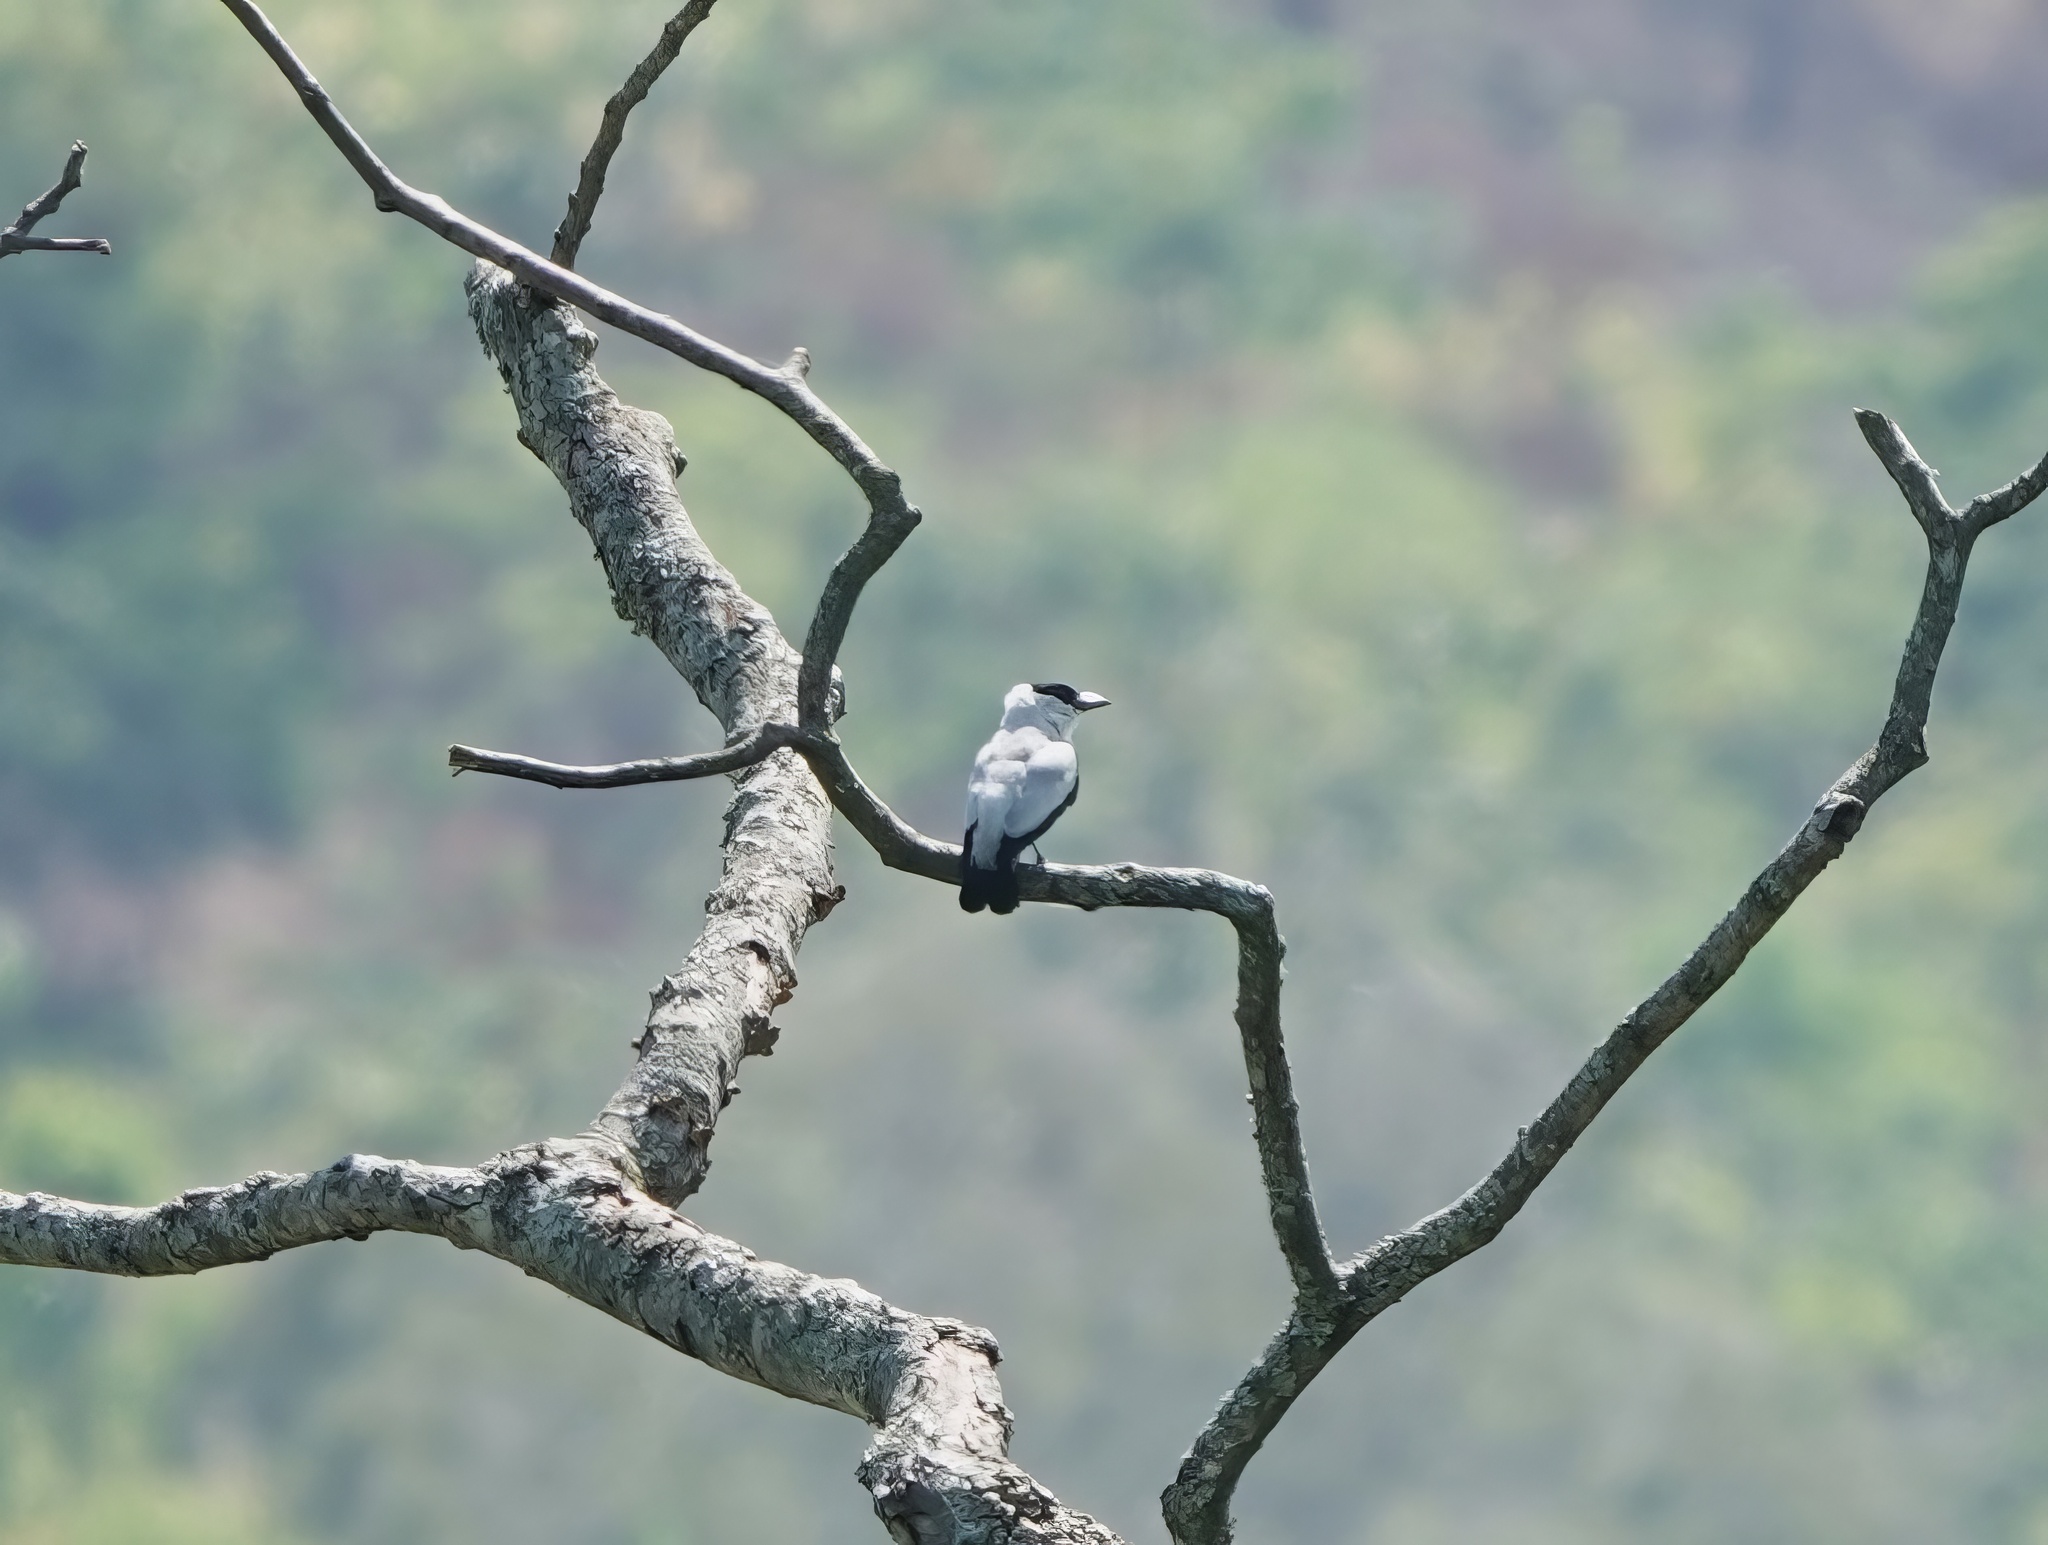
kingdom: Animalia
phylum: Chordata
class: Aves
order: Passeriformes
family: Cotingidae
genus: Tityra
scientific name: Tityra inquisitor
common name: Black-crowned tityra
